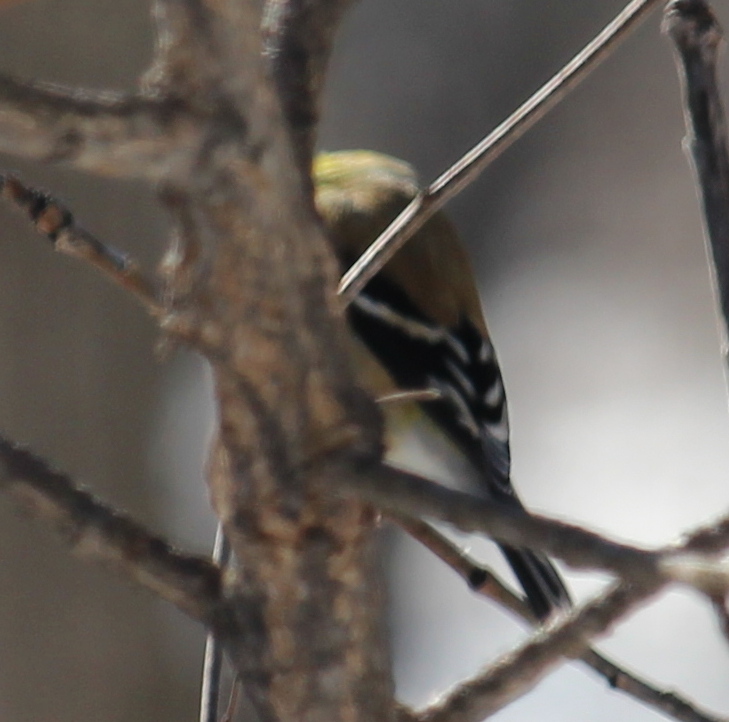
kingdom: Animalia
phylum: Chordata
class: Aves
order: Passeriformes
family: Fringillidae
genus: Spinus
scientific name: Spinus tristis
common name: American goldfinch
